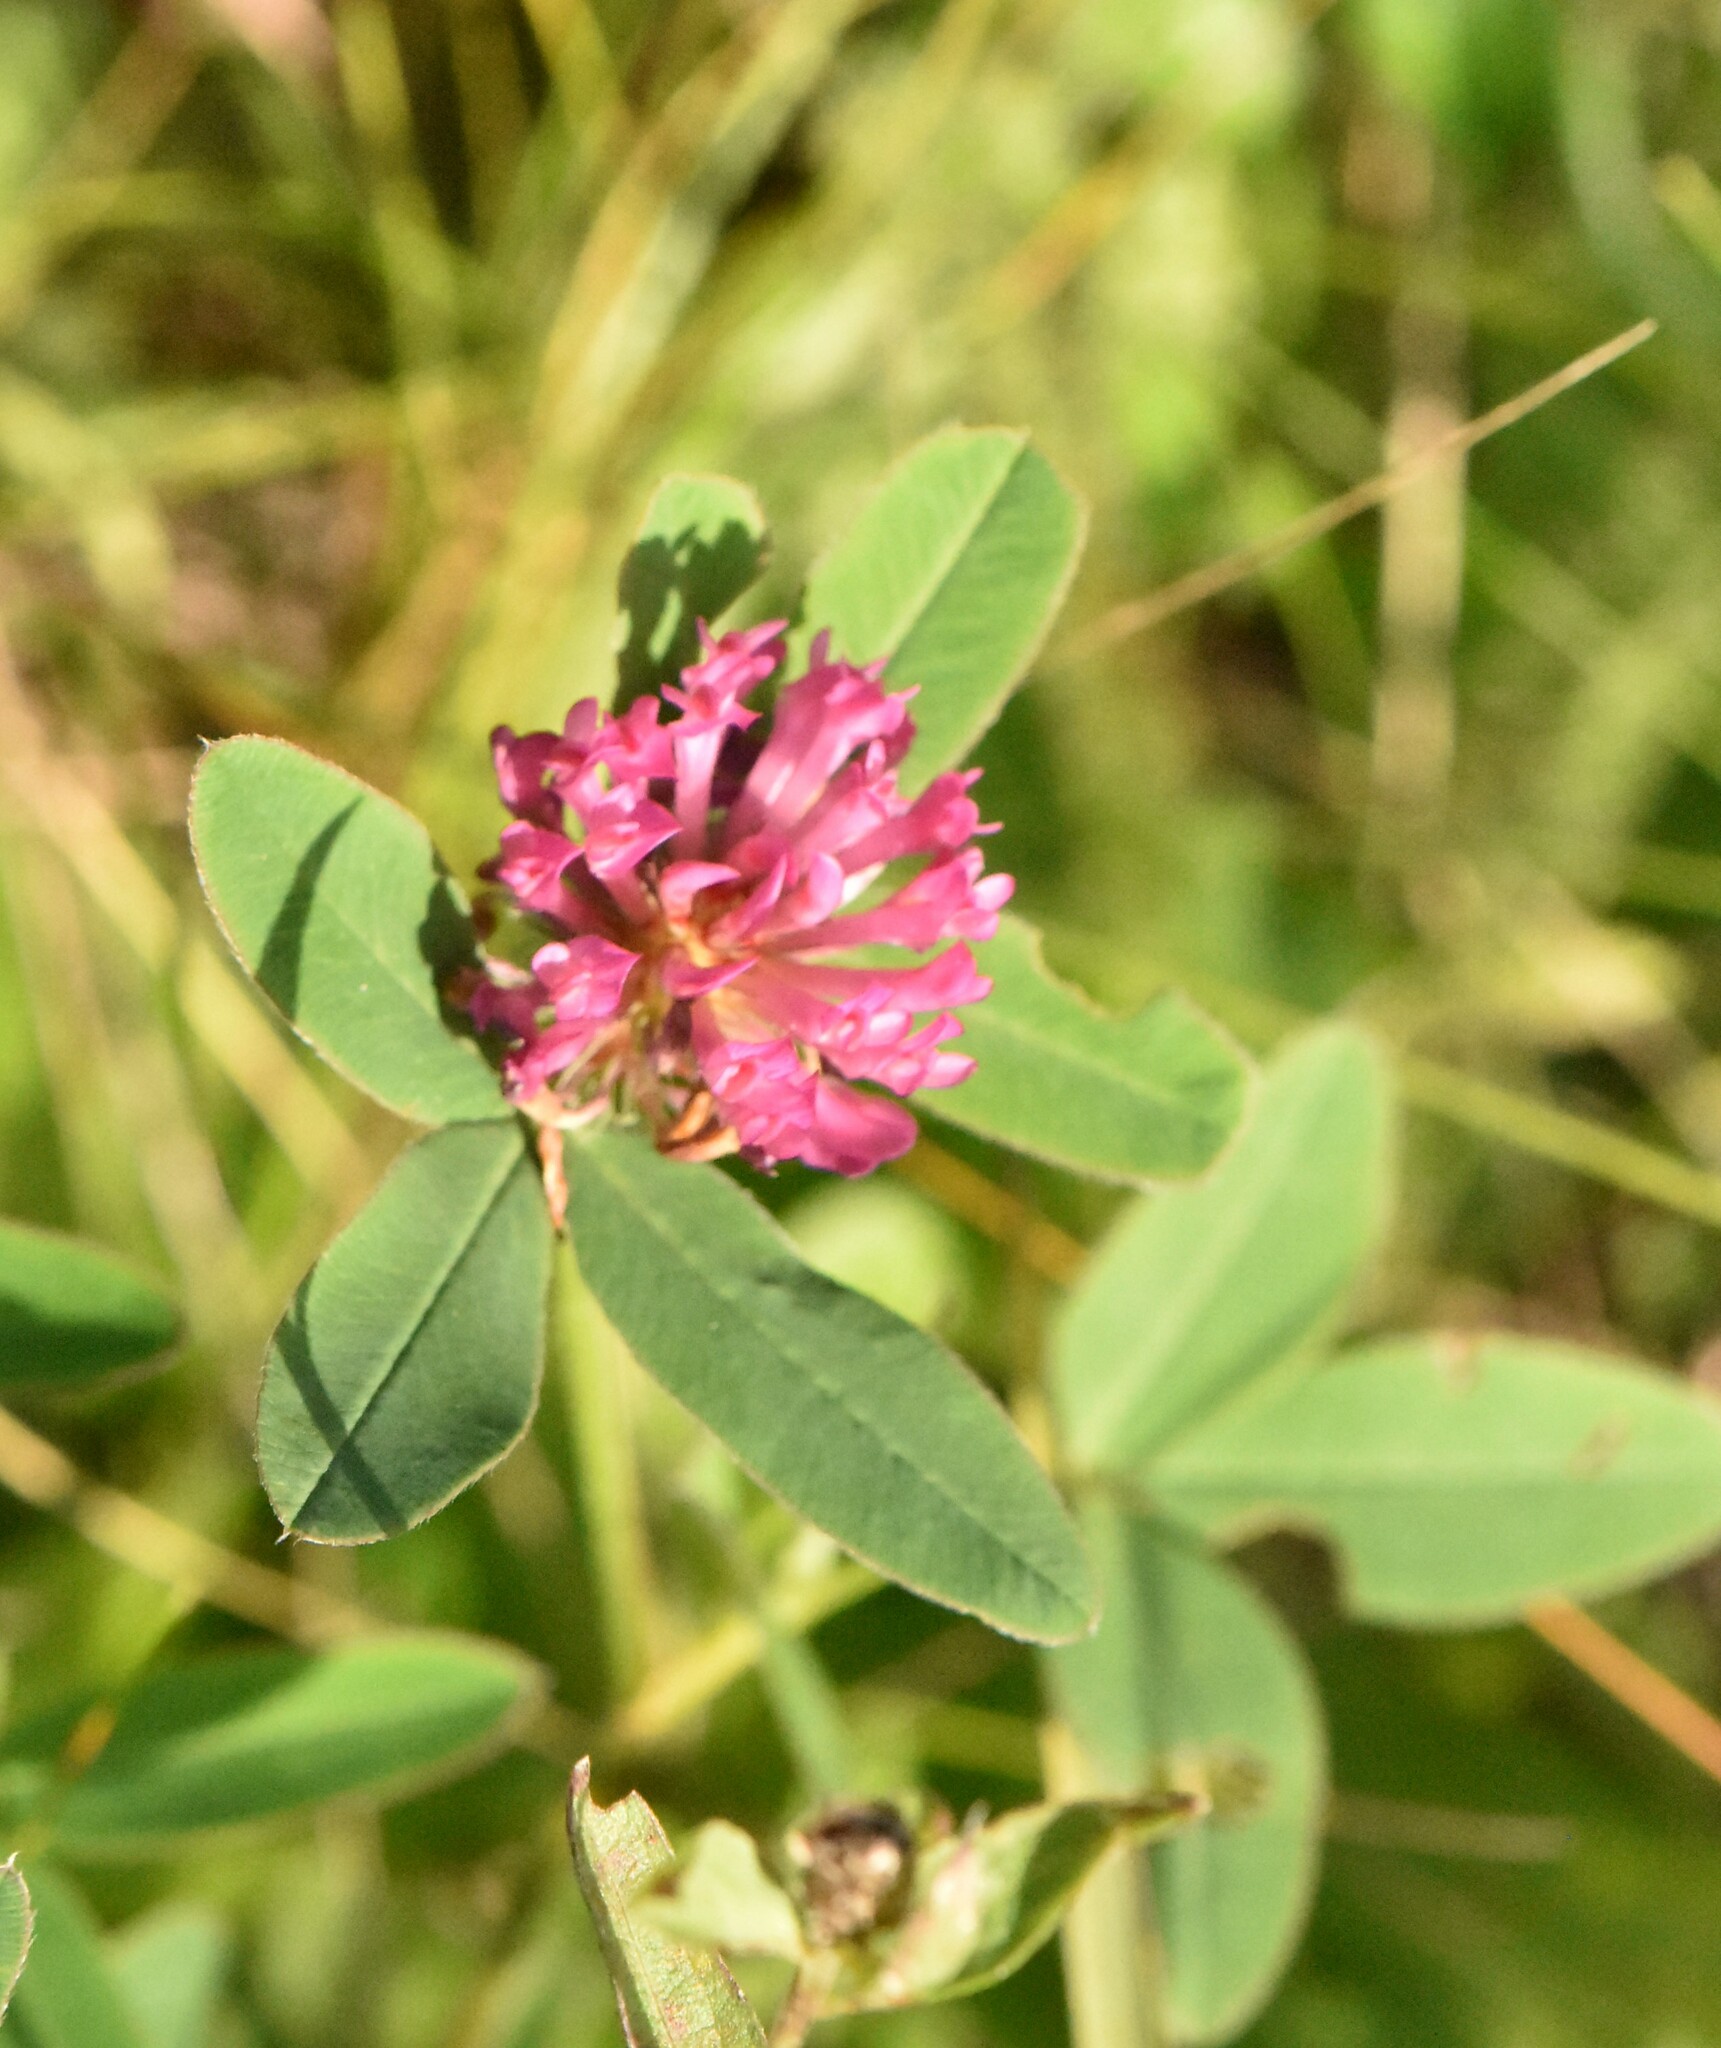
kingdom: Plantae
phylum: Tracheophyta
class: Magnoliopsida
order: Fabales
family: Fabaceae
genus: Trifolium
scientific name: Trifolium medium
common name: Zigzag clover
